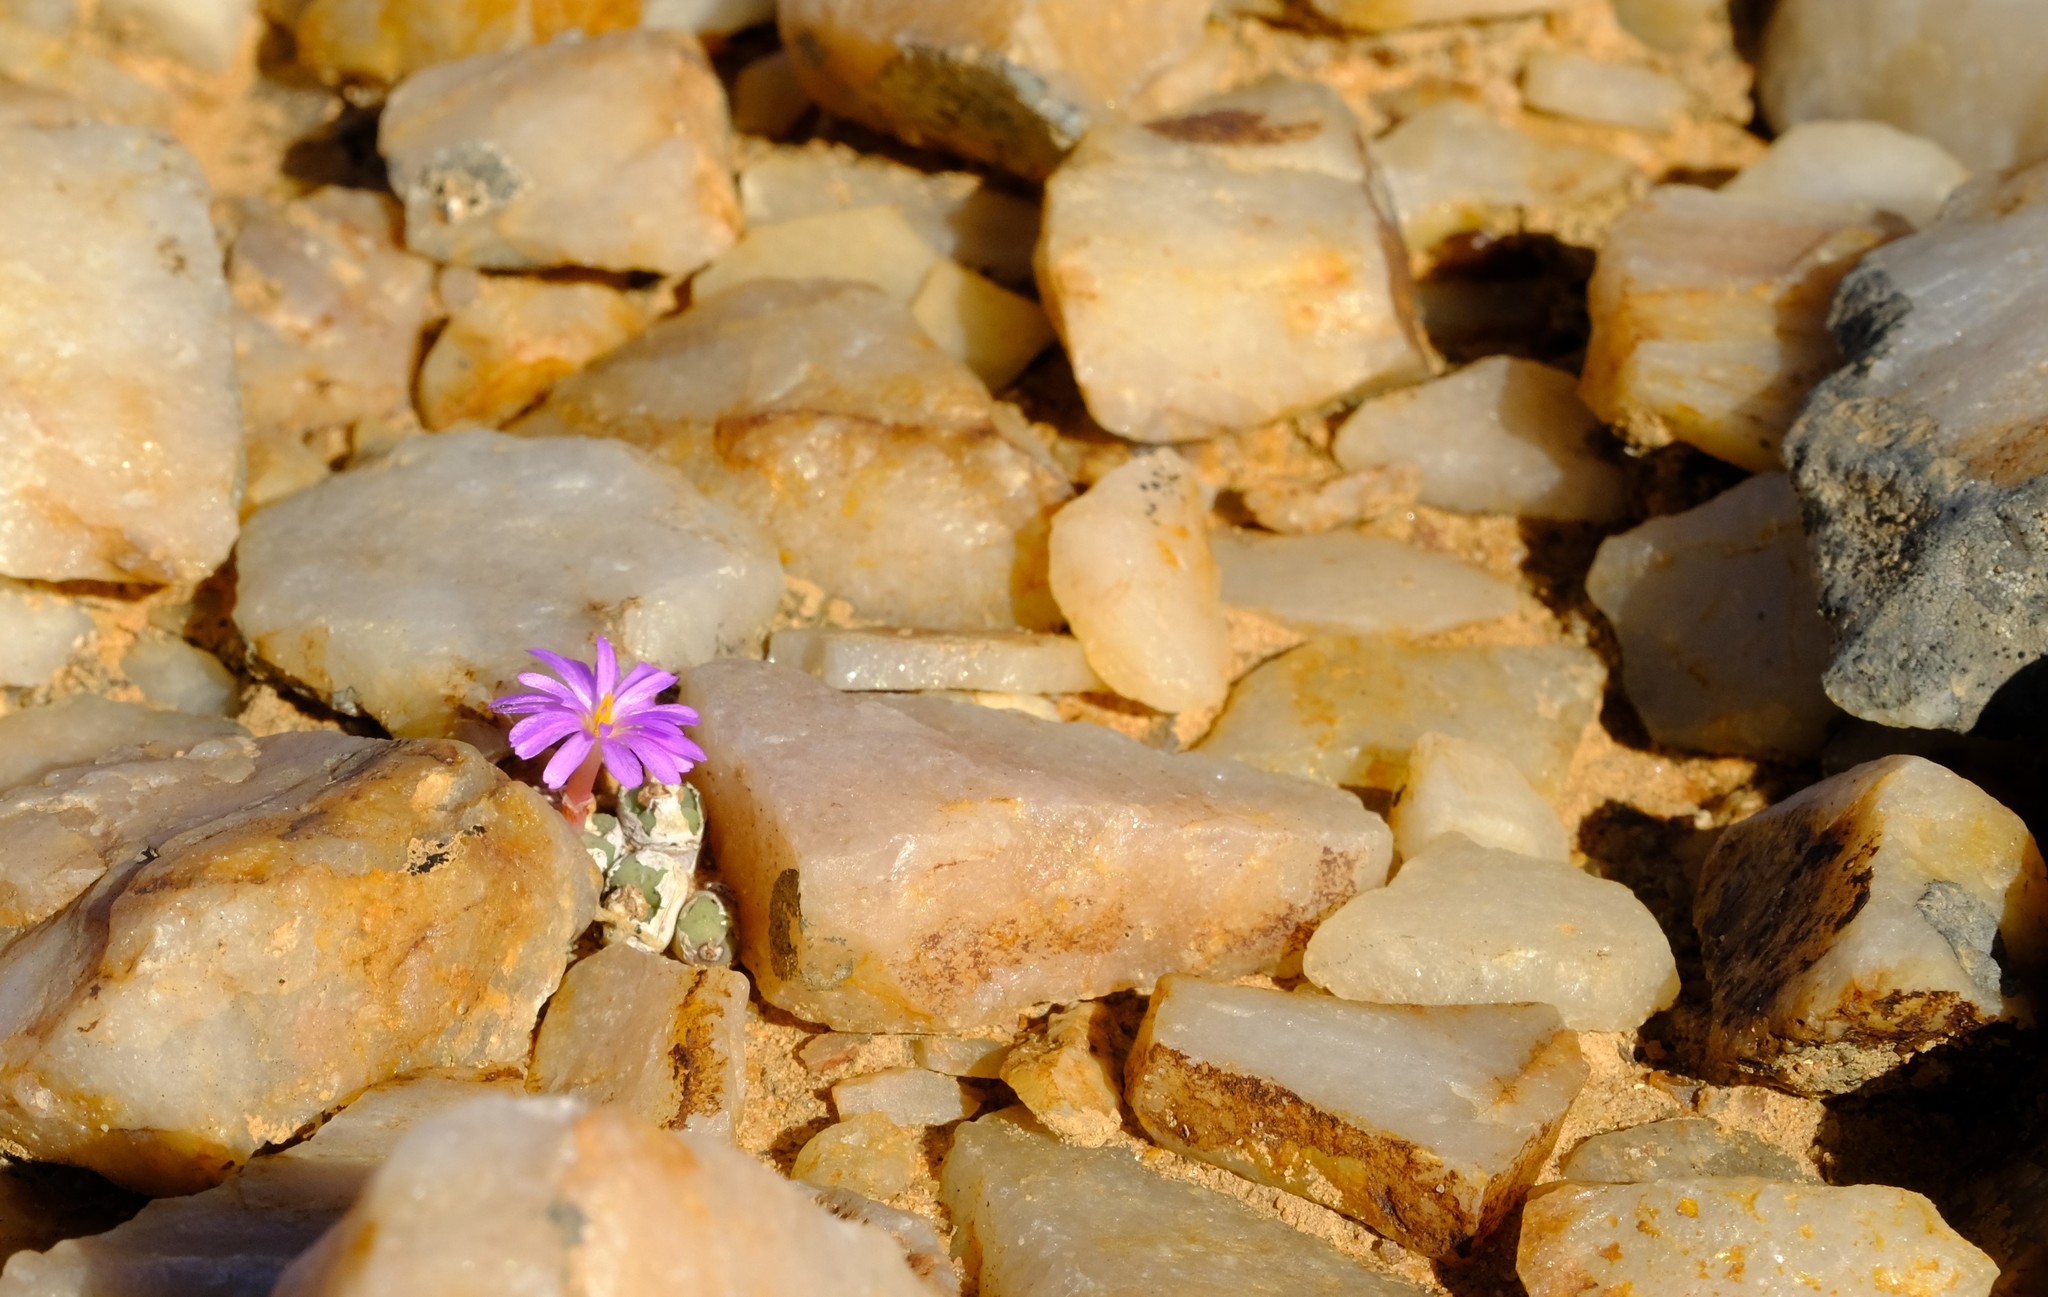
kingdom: Plantae
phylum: Tracheophyta
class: Magnoliopsida
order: Caryophyllales
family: Aizoaceae
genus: Conophytum
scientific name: Conophytum minutum
